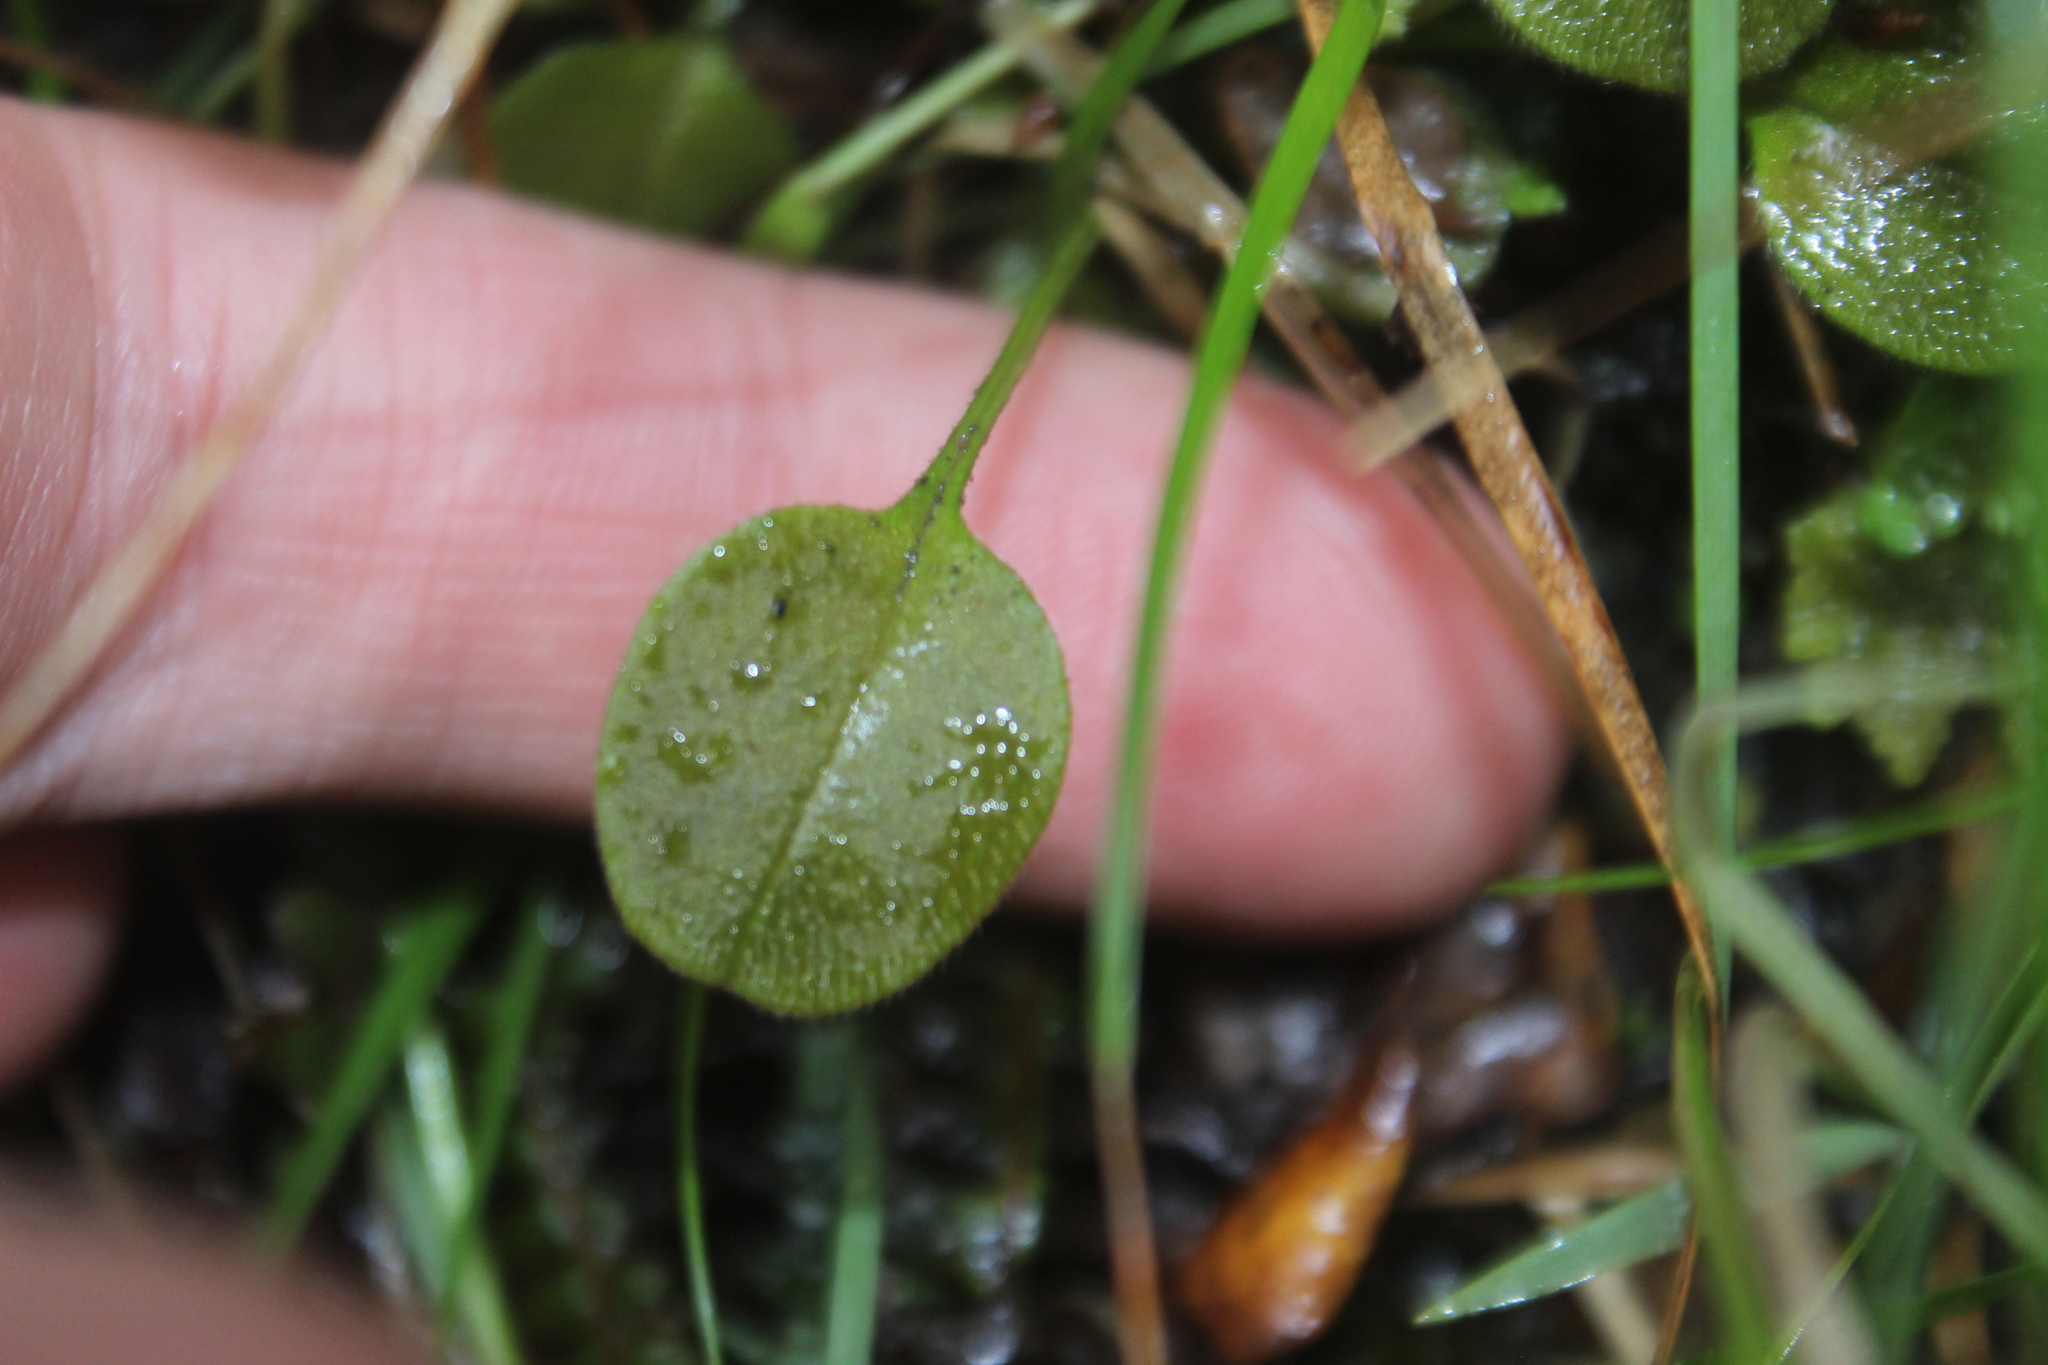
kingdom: Plantae
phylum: Tracheophyta
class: Magnoliopsida
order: Boraginales
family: Boraginaceae
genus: Myosotis
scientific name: Myosotis forsteri
